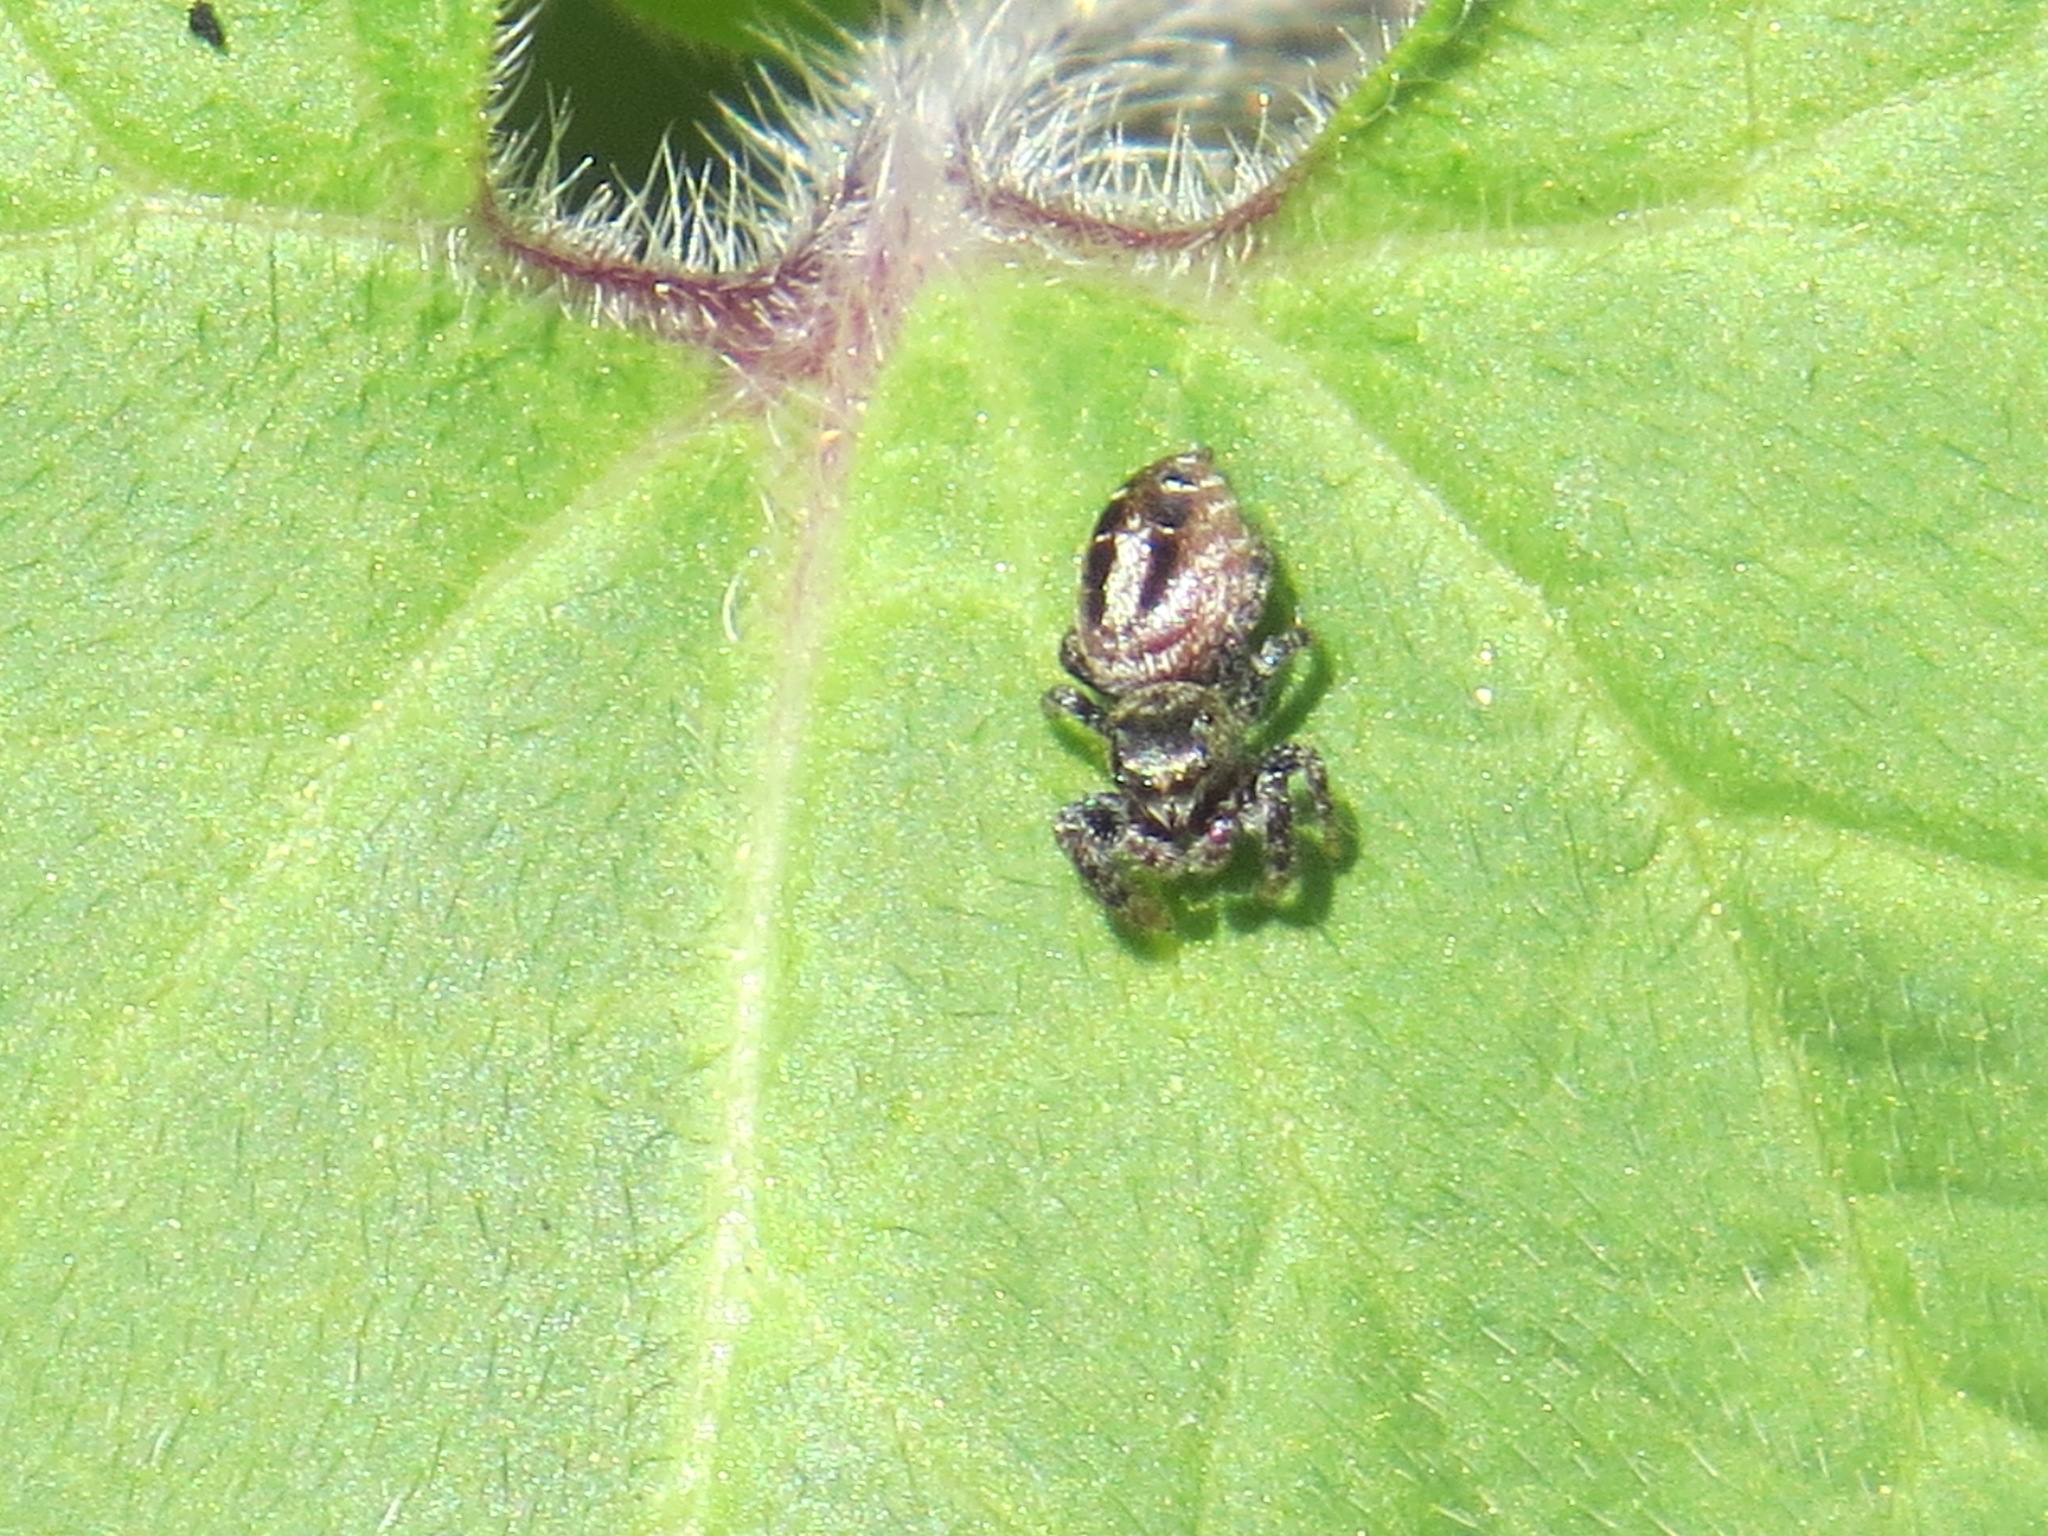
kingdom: Animalia
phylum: Arthropoda
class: Arachnida
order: Araneae
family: Salticidae
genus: Pelegrina
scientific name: Pelegrina aeneola
